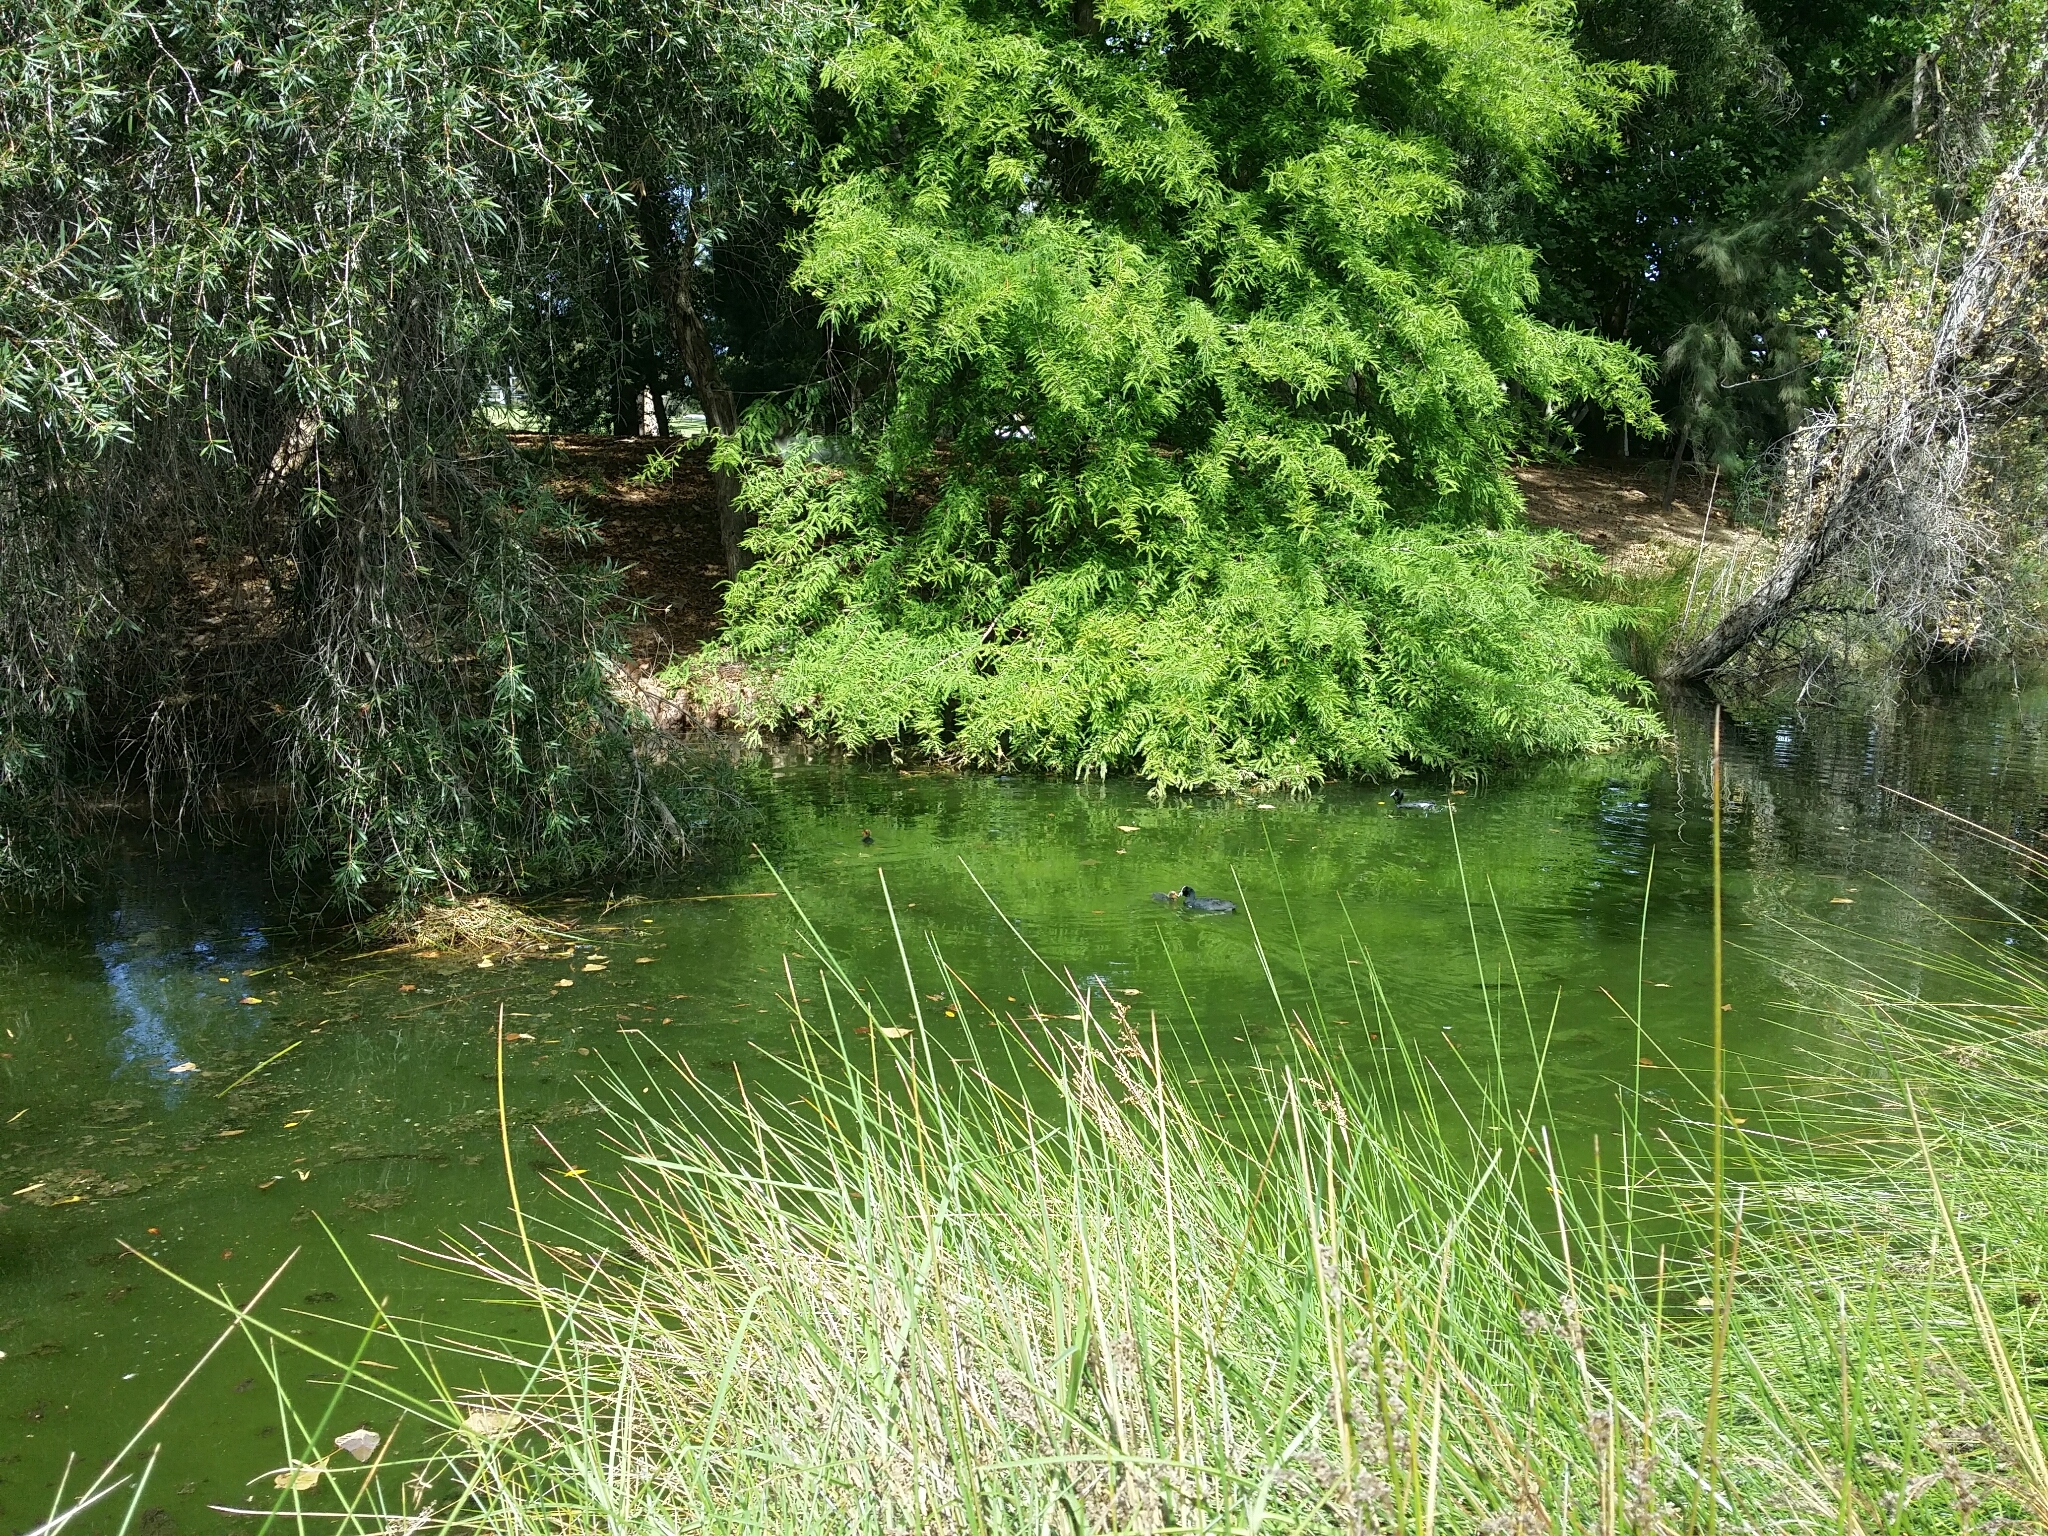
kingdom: Animalia
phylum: Chordata
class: Aves
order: Gruiformes
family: Rallidae
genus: Fulica
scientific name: Fulica atra
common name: Eurasian coot
